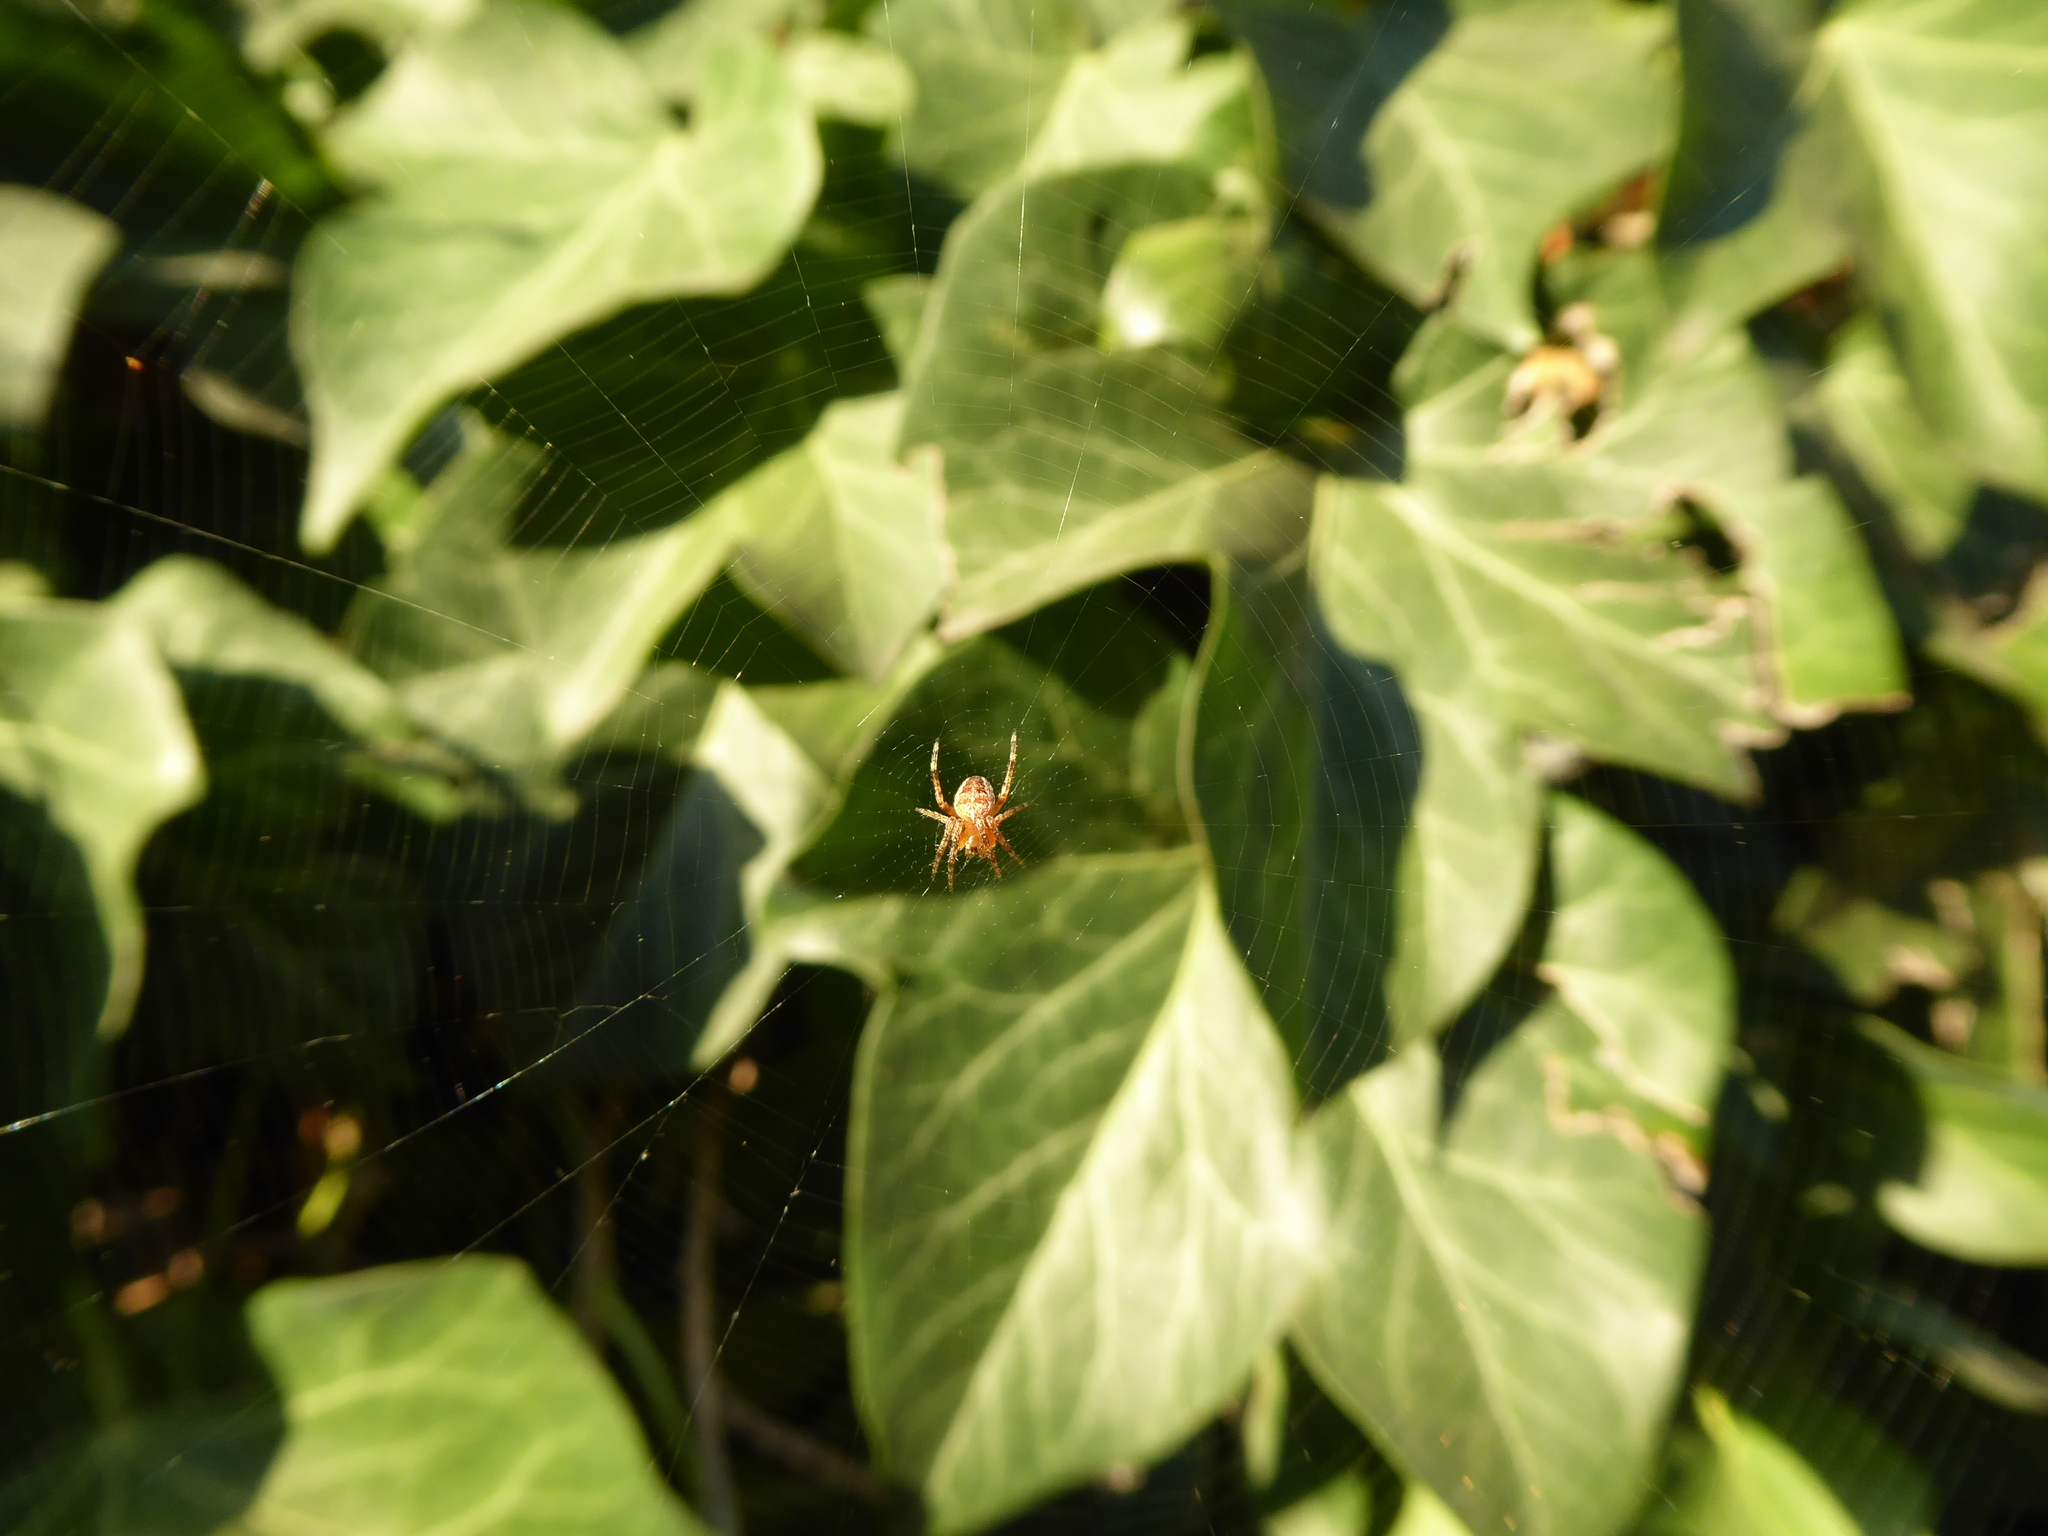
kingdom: Animalia
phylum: Arthropoda
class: Arachnida
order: Araneae
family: Araneidae
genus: Araneus
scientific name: Araneus diadematus
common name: Cross orbweaver
